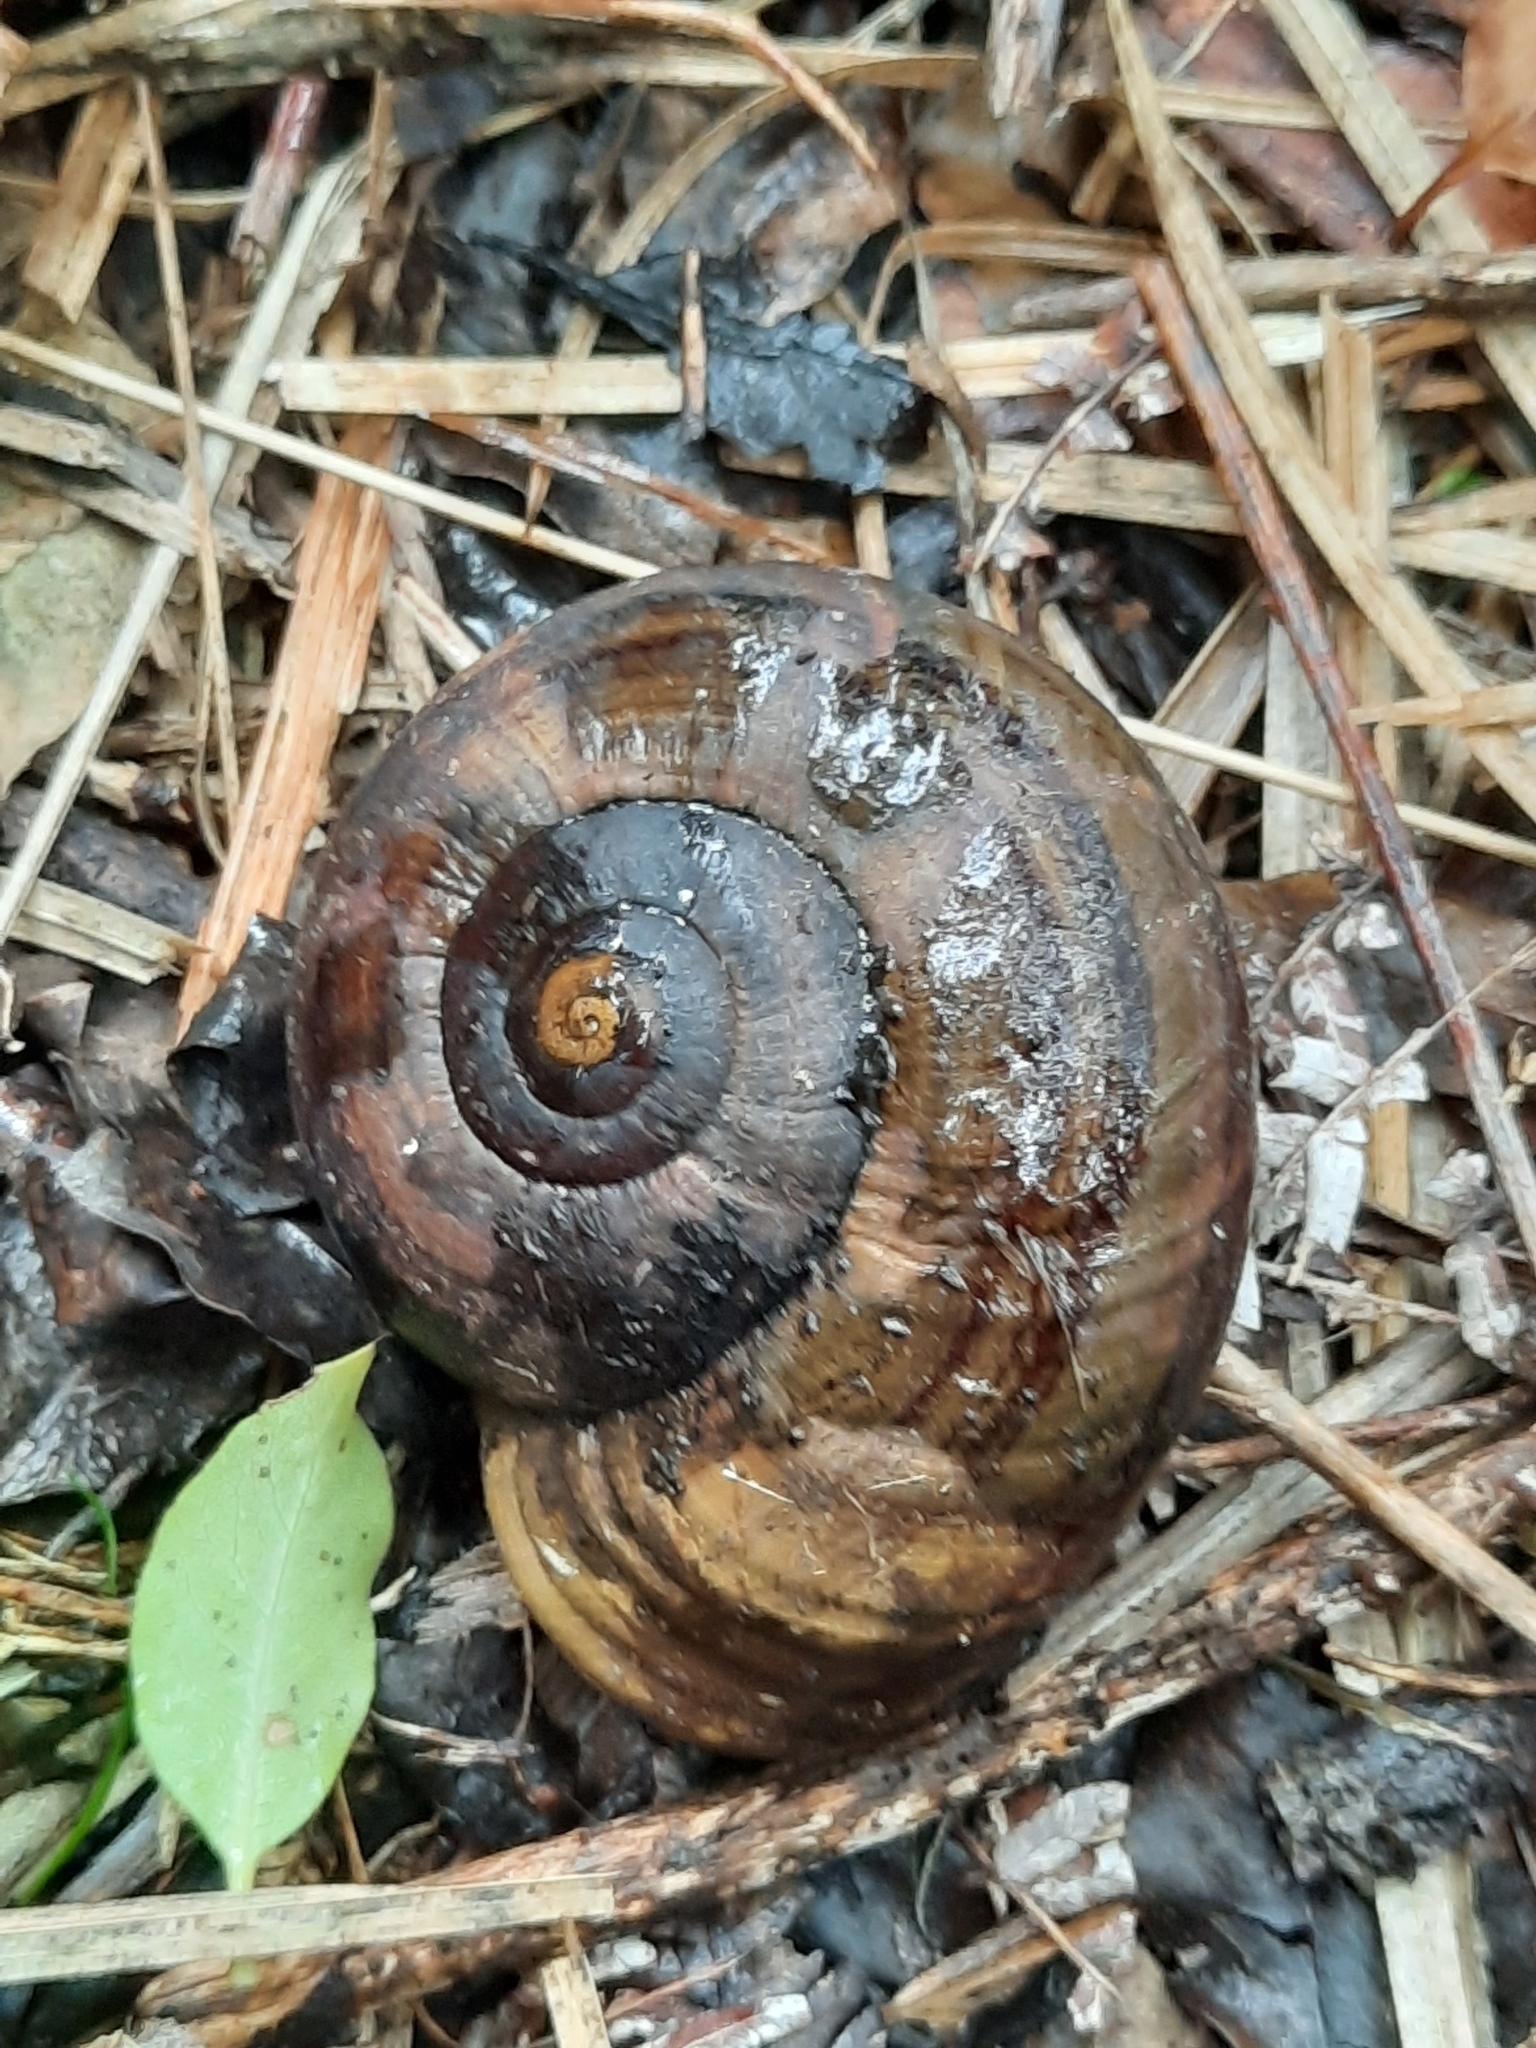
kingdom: Animalia
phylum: Mollusca
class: Gastropoda
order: Stylommatophora
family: Rhytididae
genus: Powelliphanta
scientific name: Powelliphanta hochstetteri
